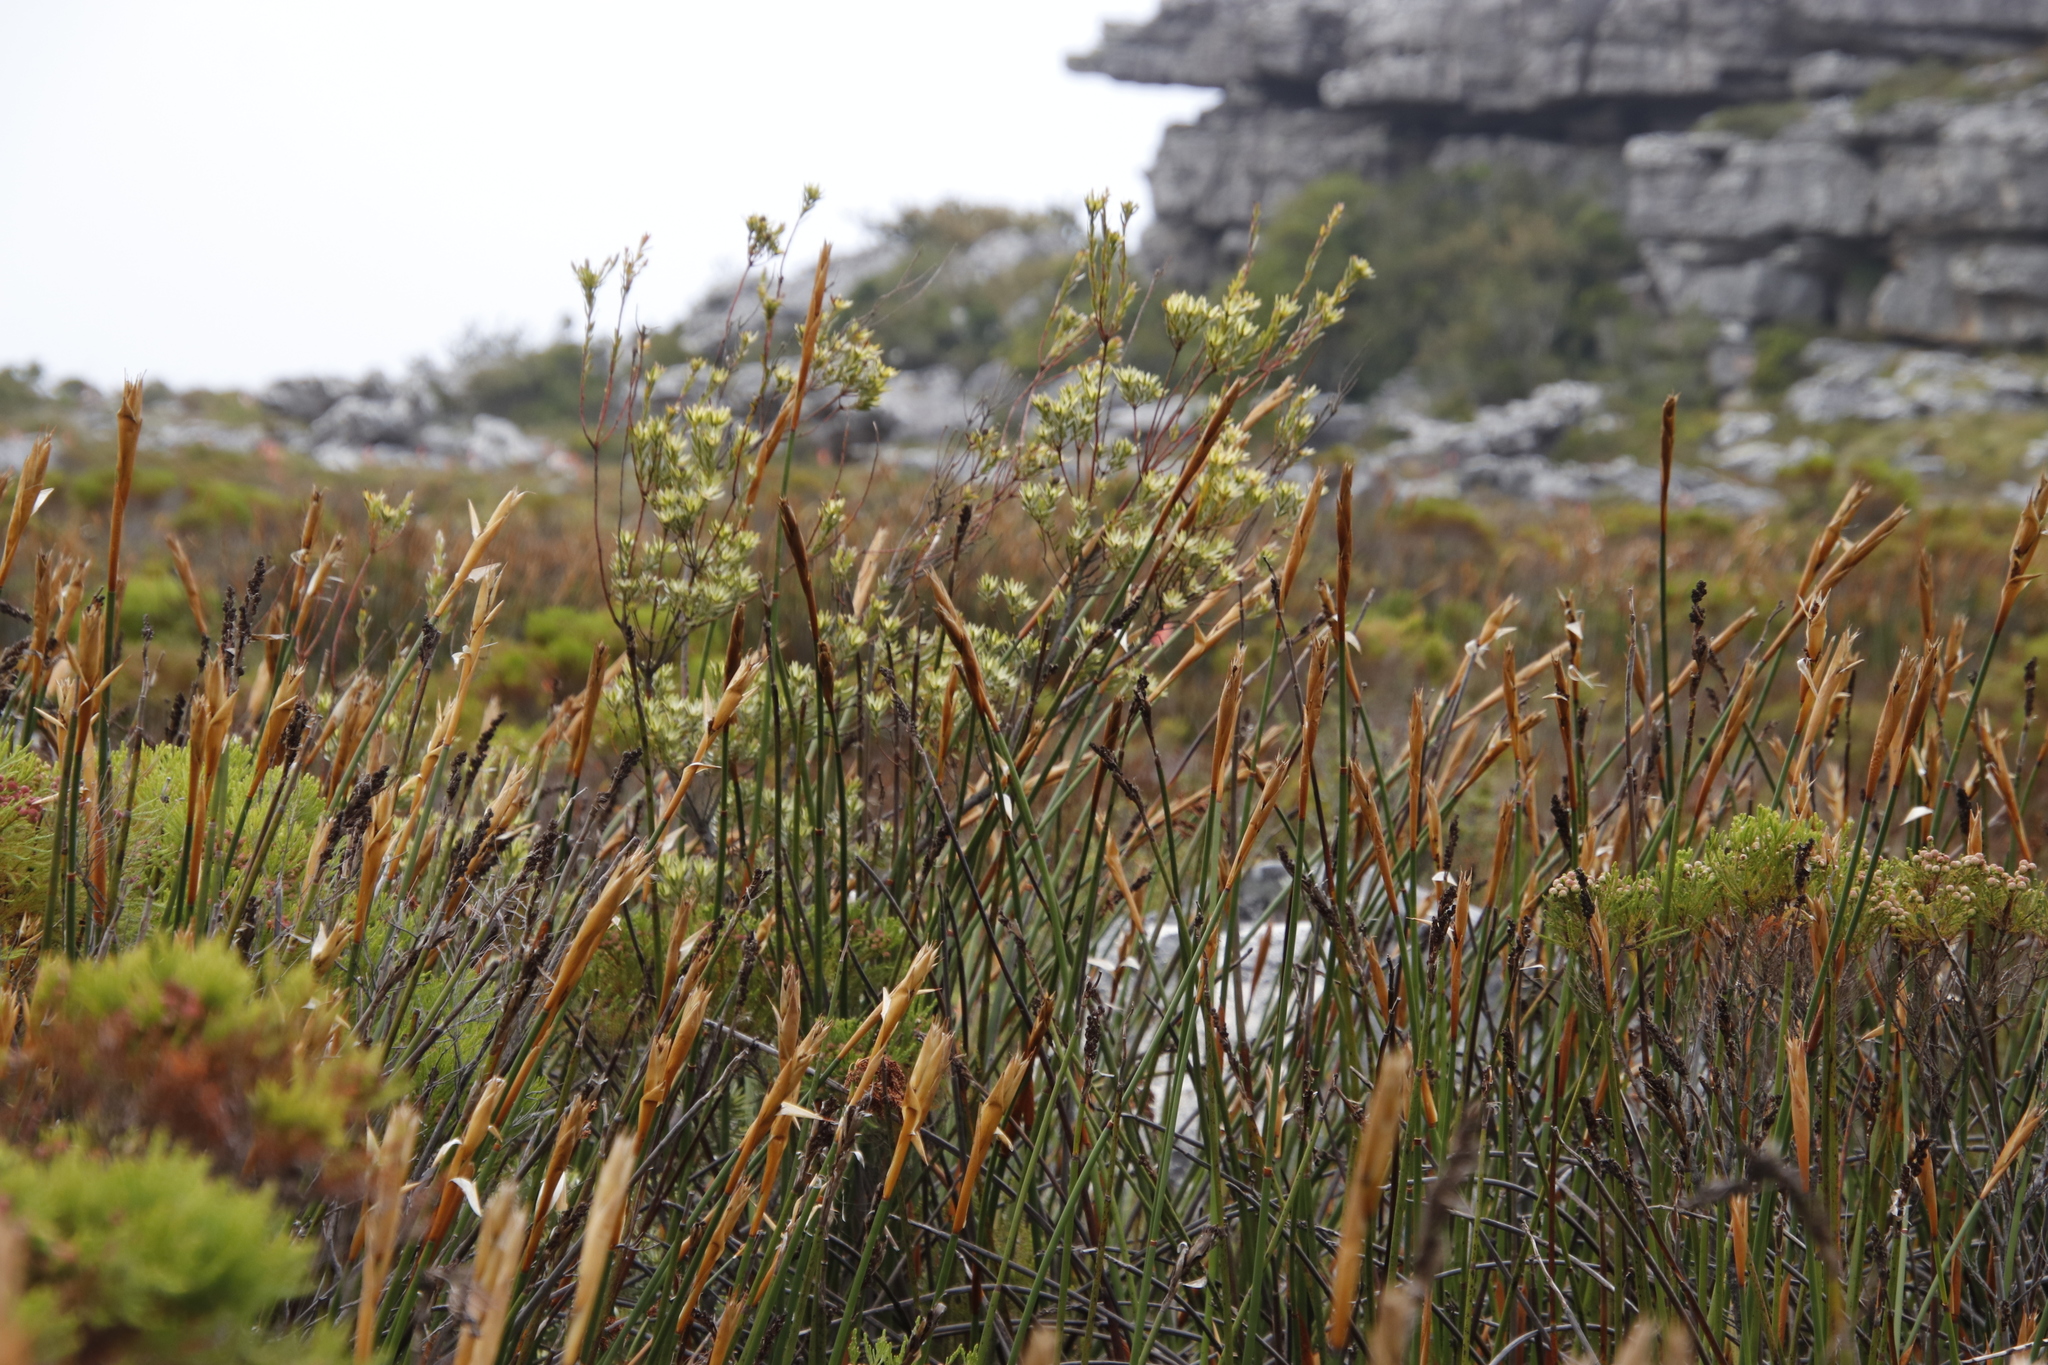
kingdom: Plantae
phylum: Tracheophyta
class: Magnoliopsida
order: Proteales
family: Proteaceae
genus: Leucadendron
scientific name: Leucadendron uliginosum
